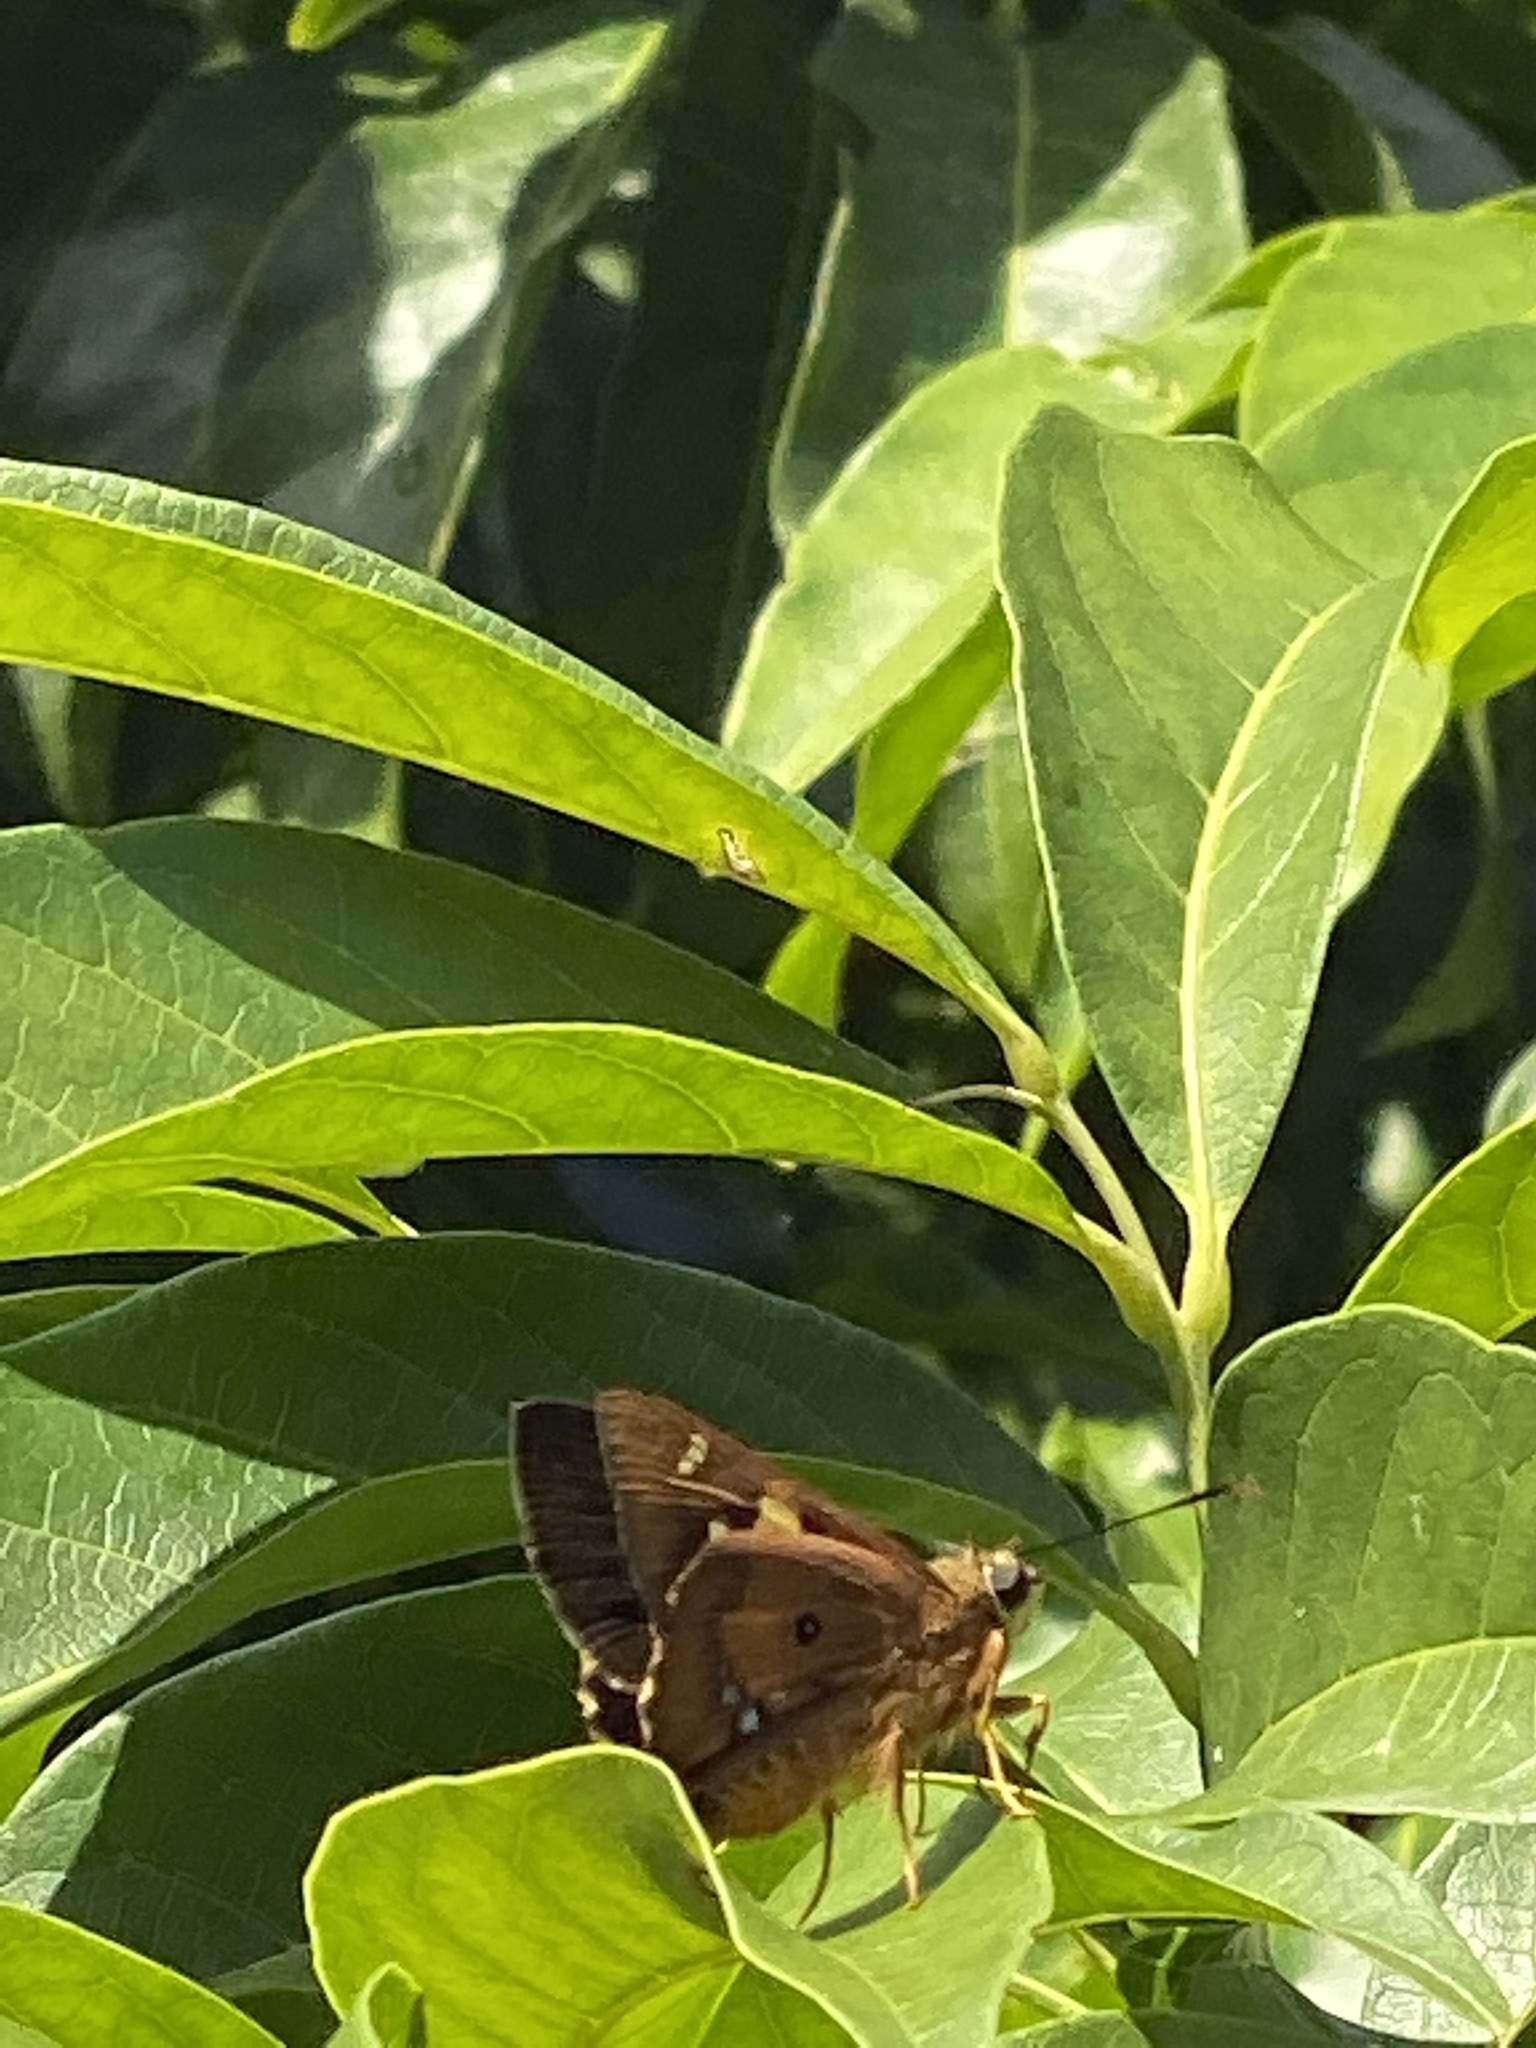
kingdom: Animalia
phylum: Arthropoda
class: Insecta
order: Lepidoptera
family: Hesperiidae
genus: Trapezites
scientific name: Trapezites symmomus
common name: Splendid ochre
